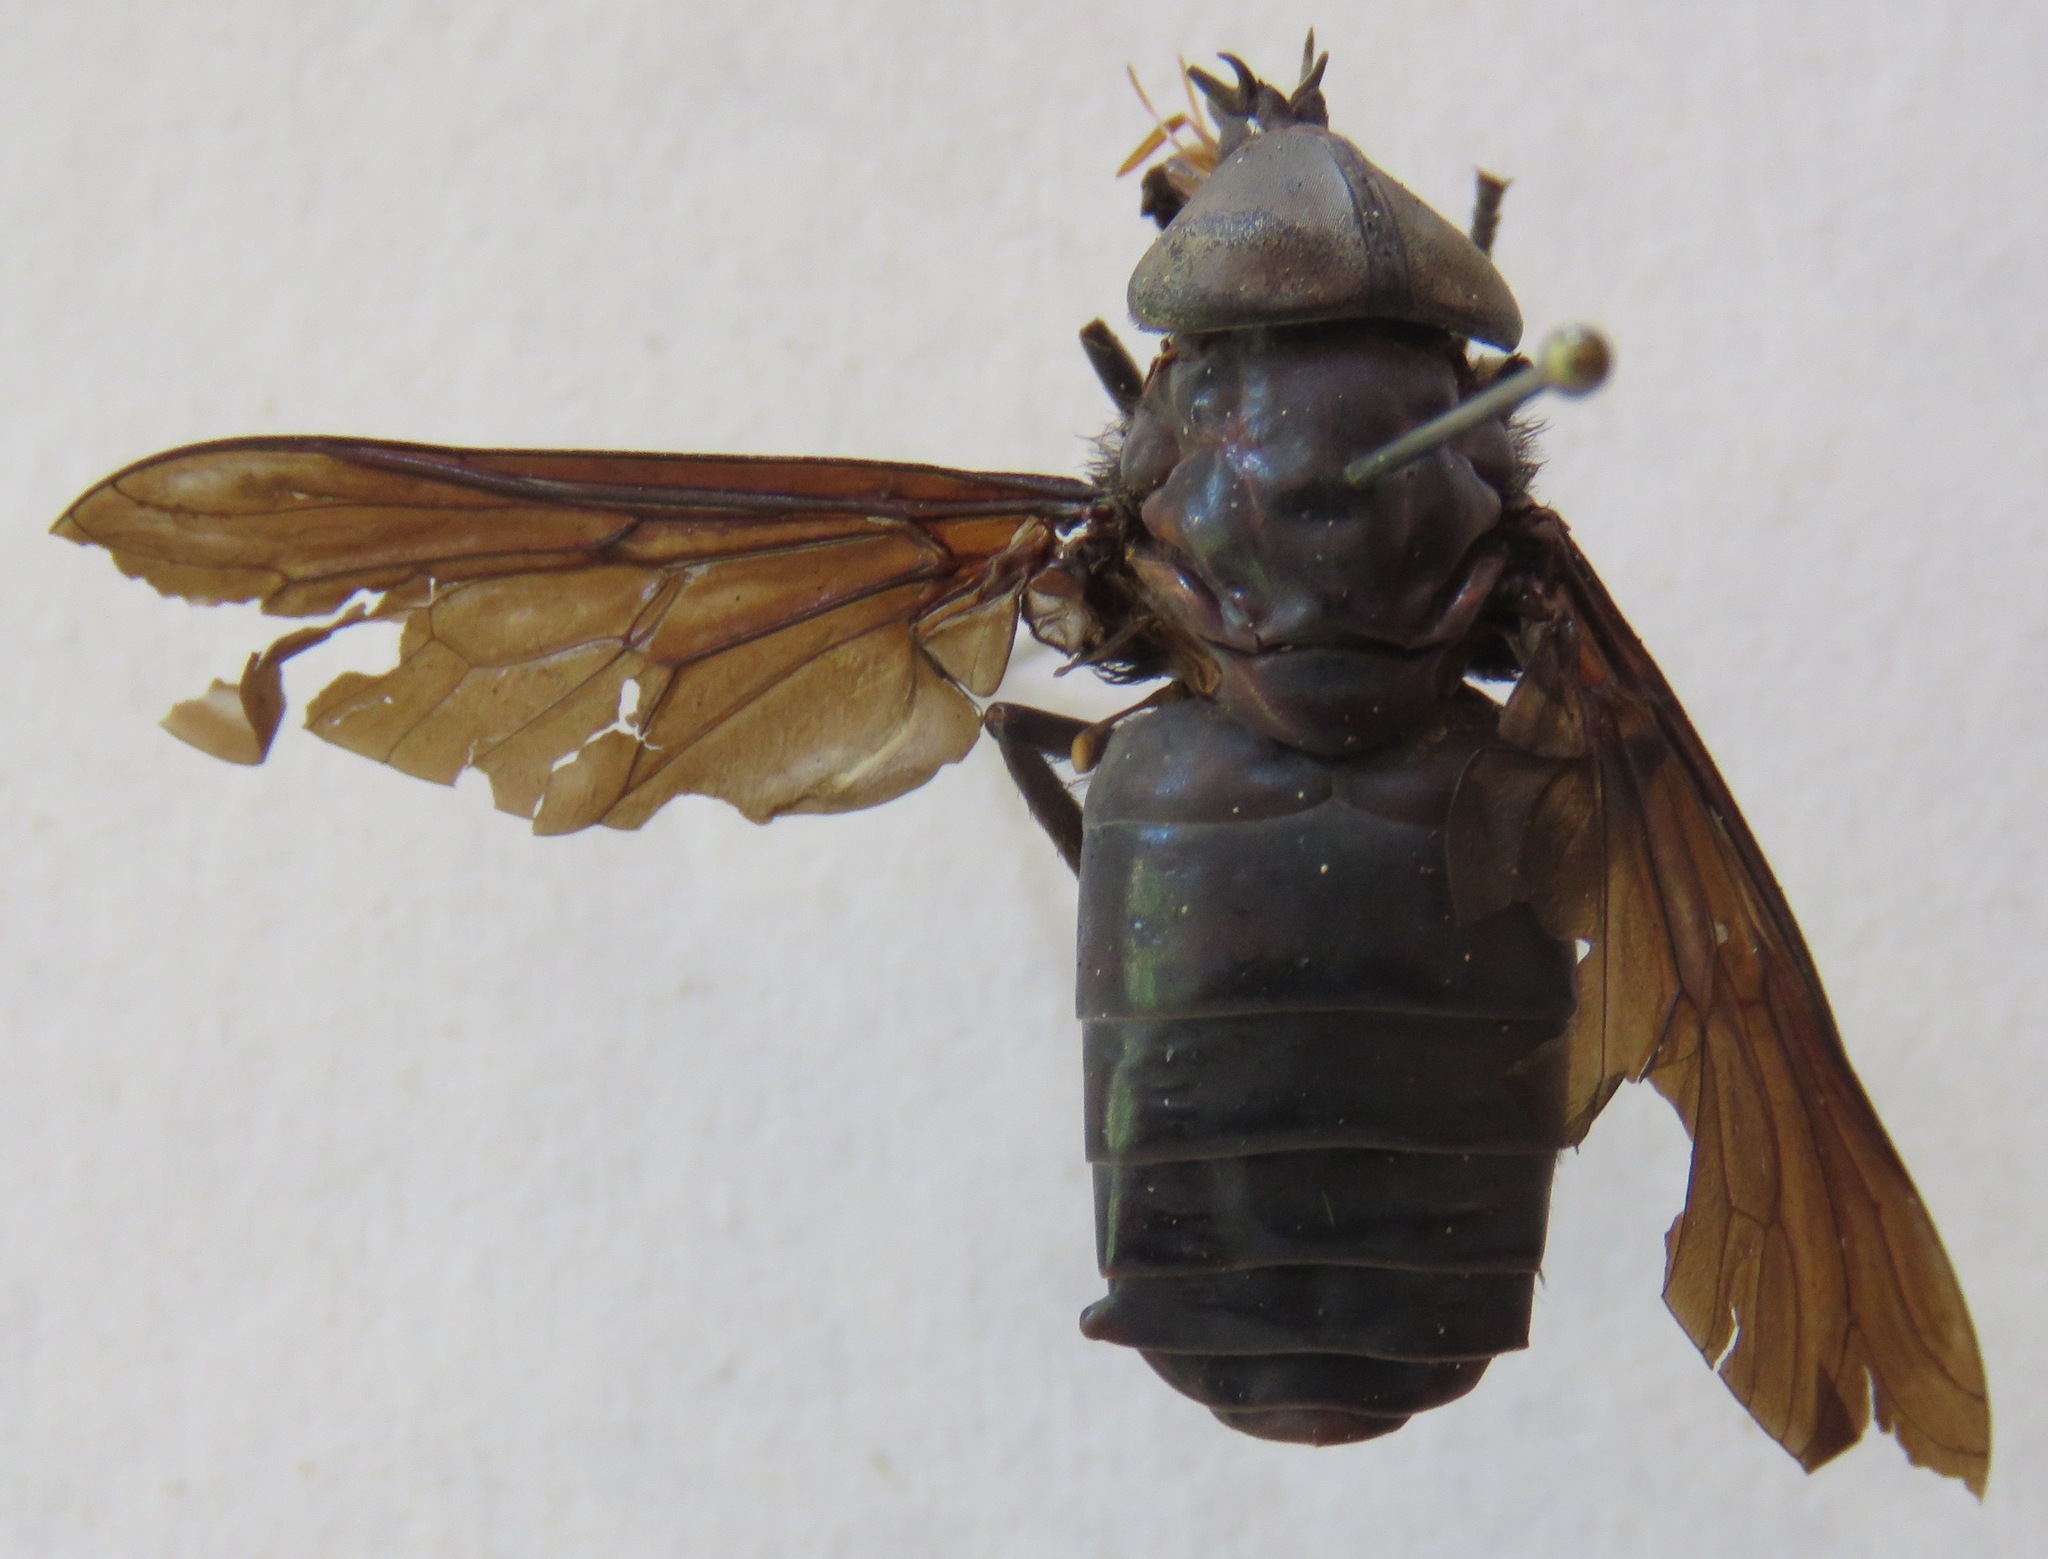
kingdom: Animalia
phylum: Arthropoda
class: Insecta
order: Diptera
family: Tabanidae
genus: Tabanus
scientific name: Tabanus erebus
